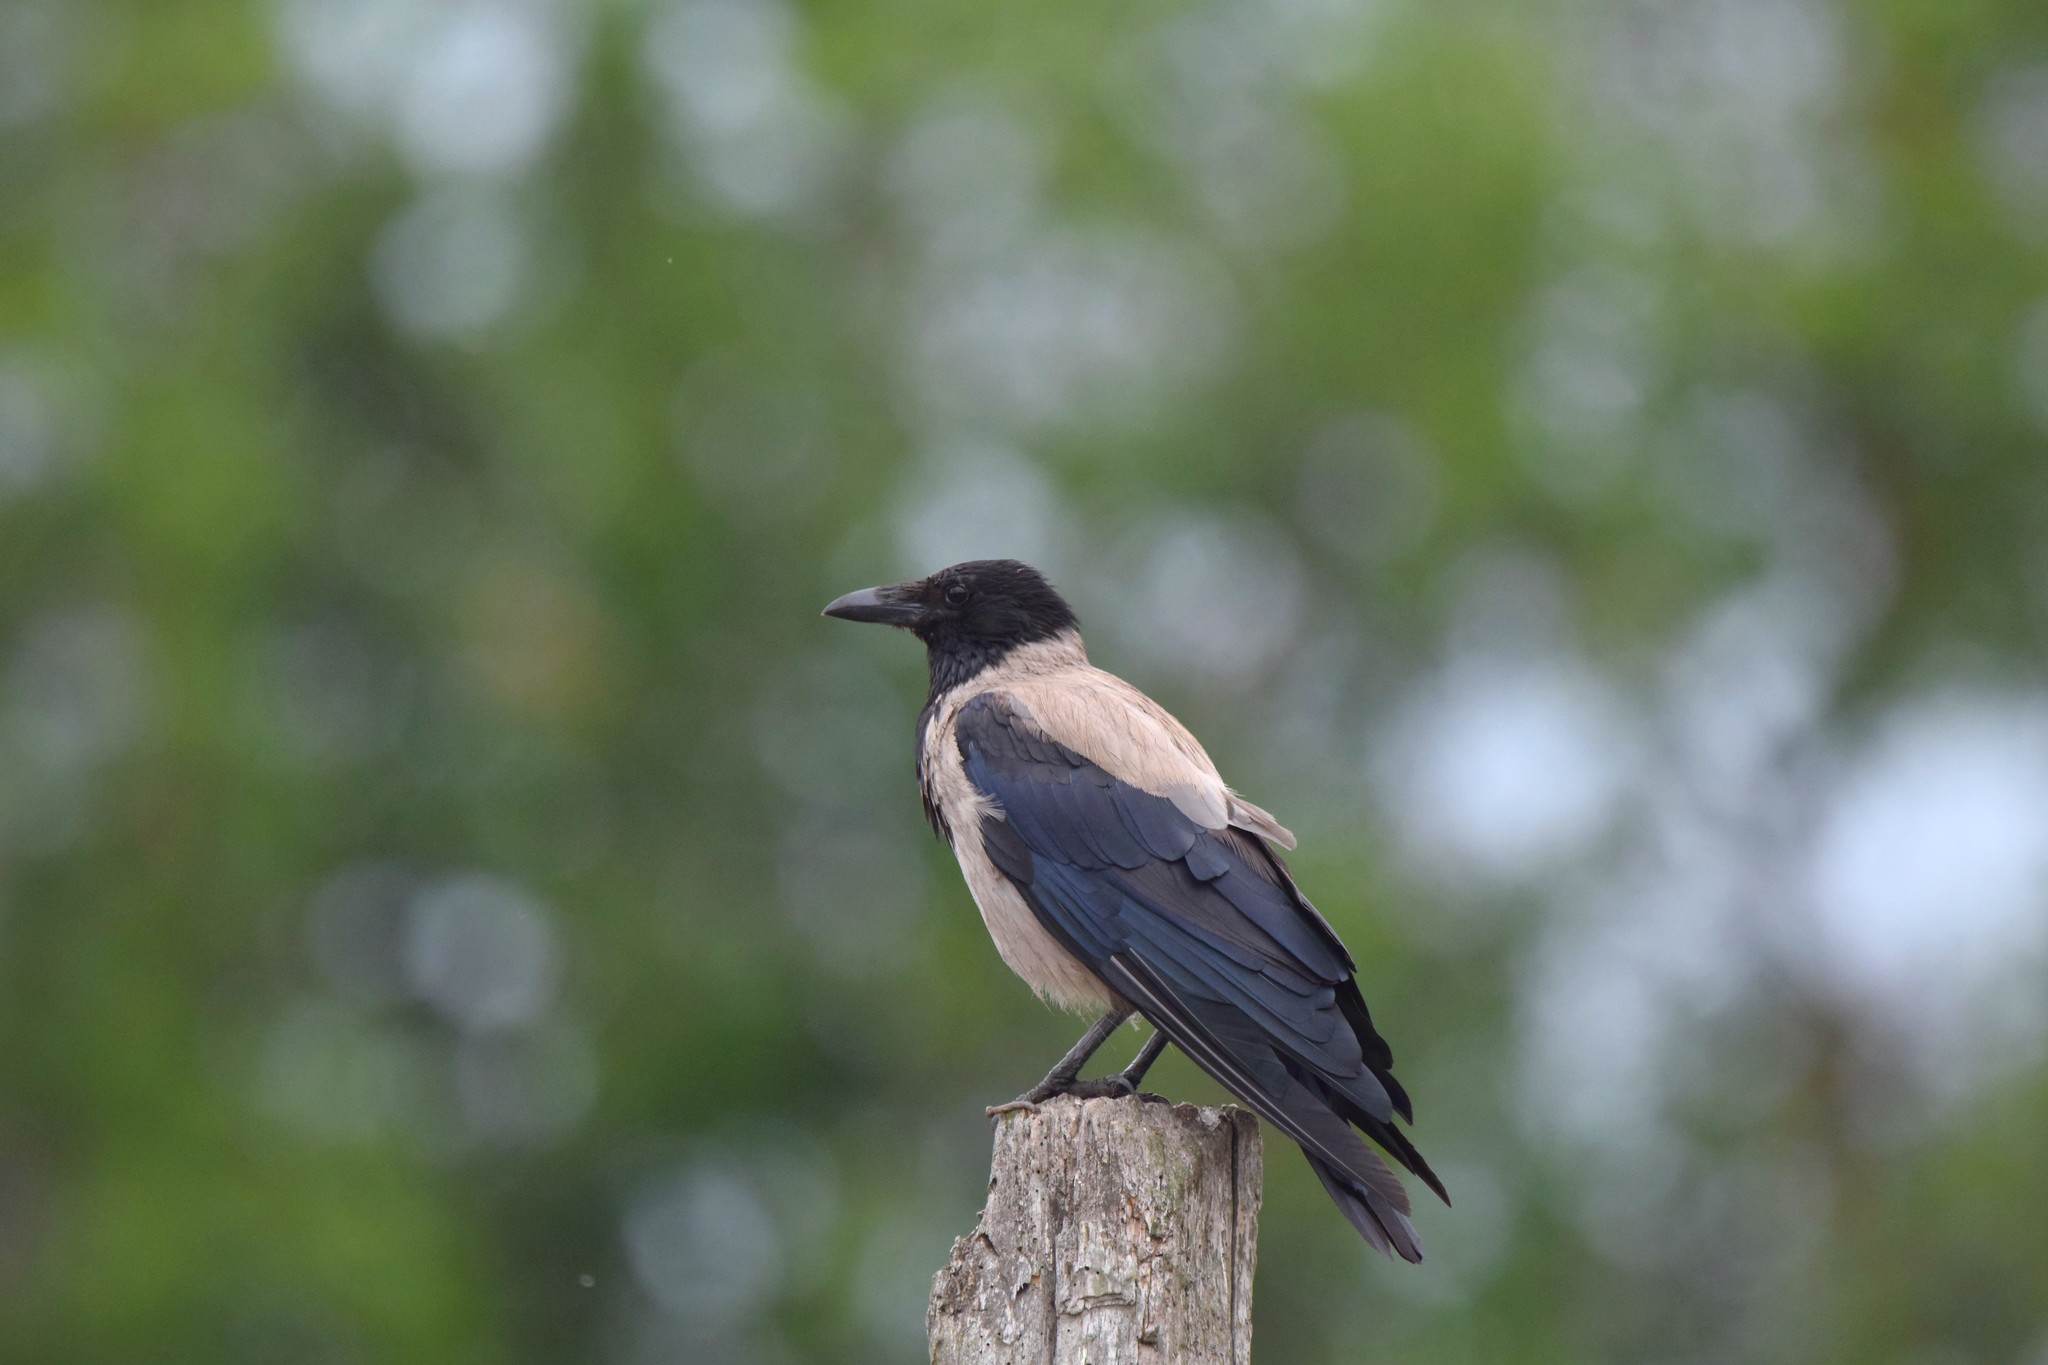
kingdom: Animalia
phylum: Chordata
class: Aves
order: Passeriformes
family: Corvidae
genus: Corvus
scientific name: Corvus cornix
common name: Hooded crow
